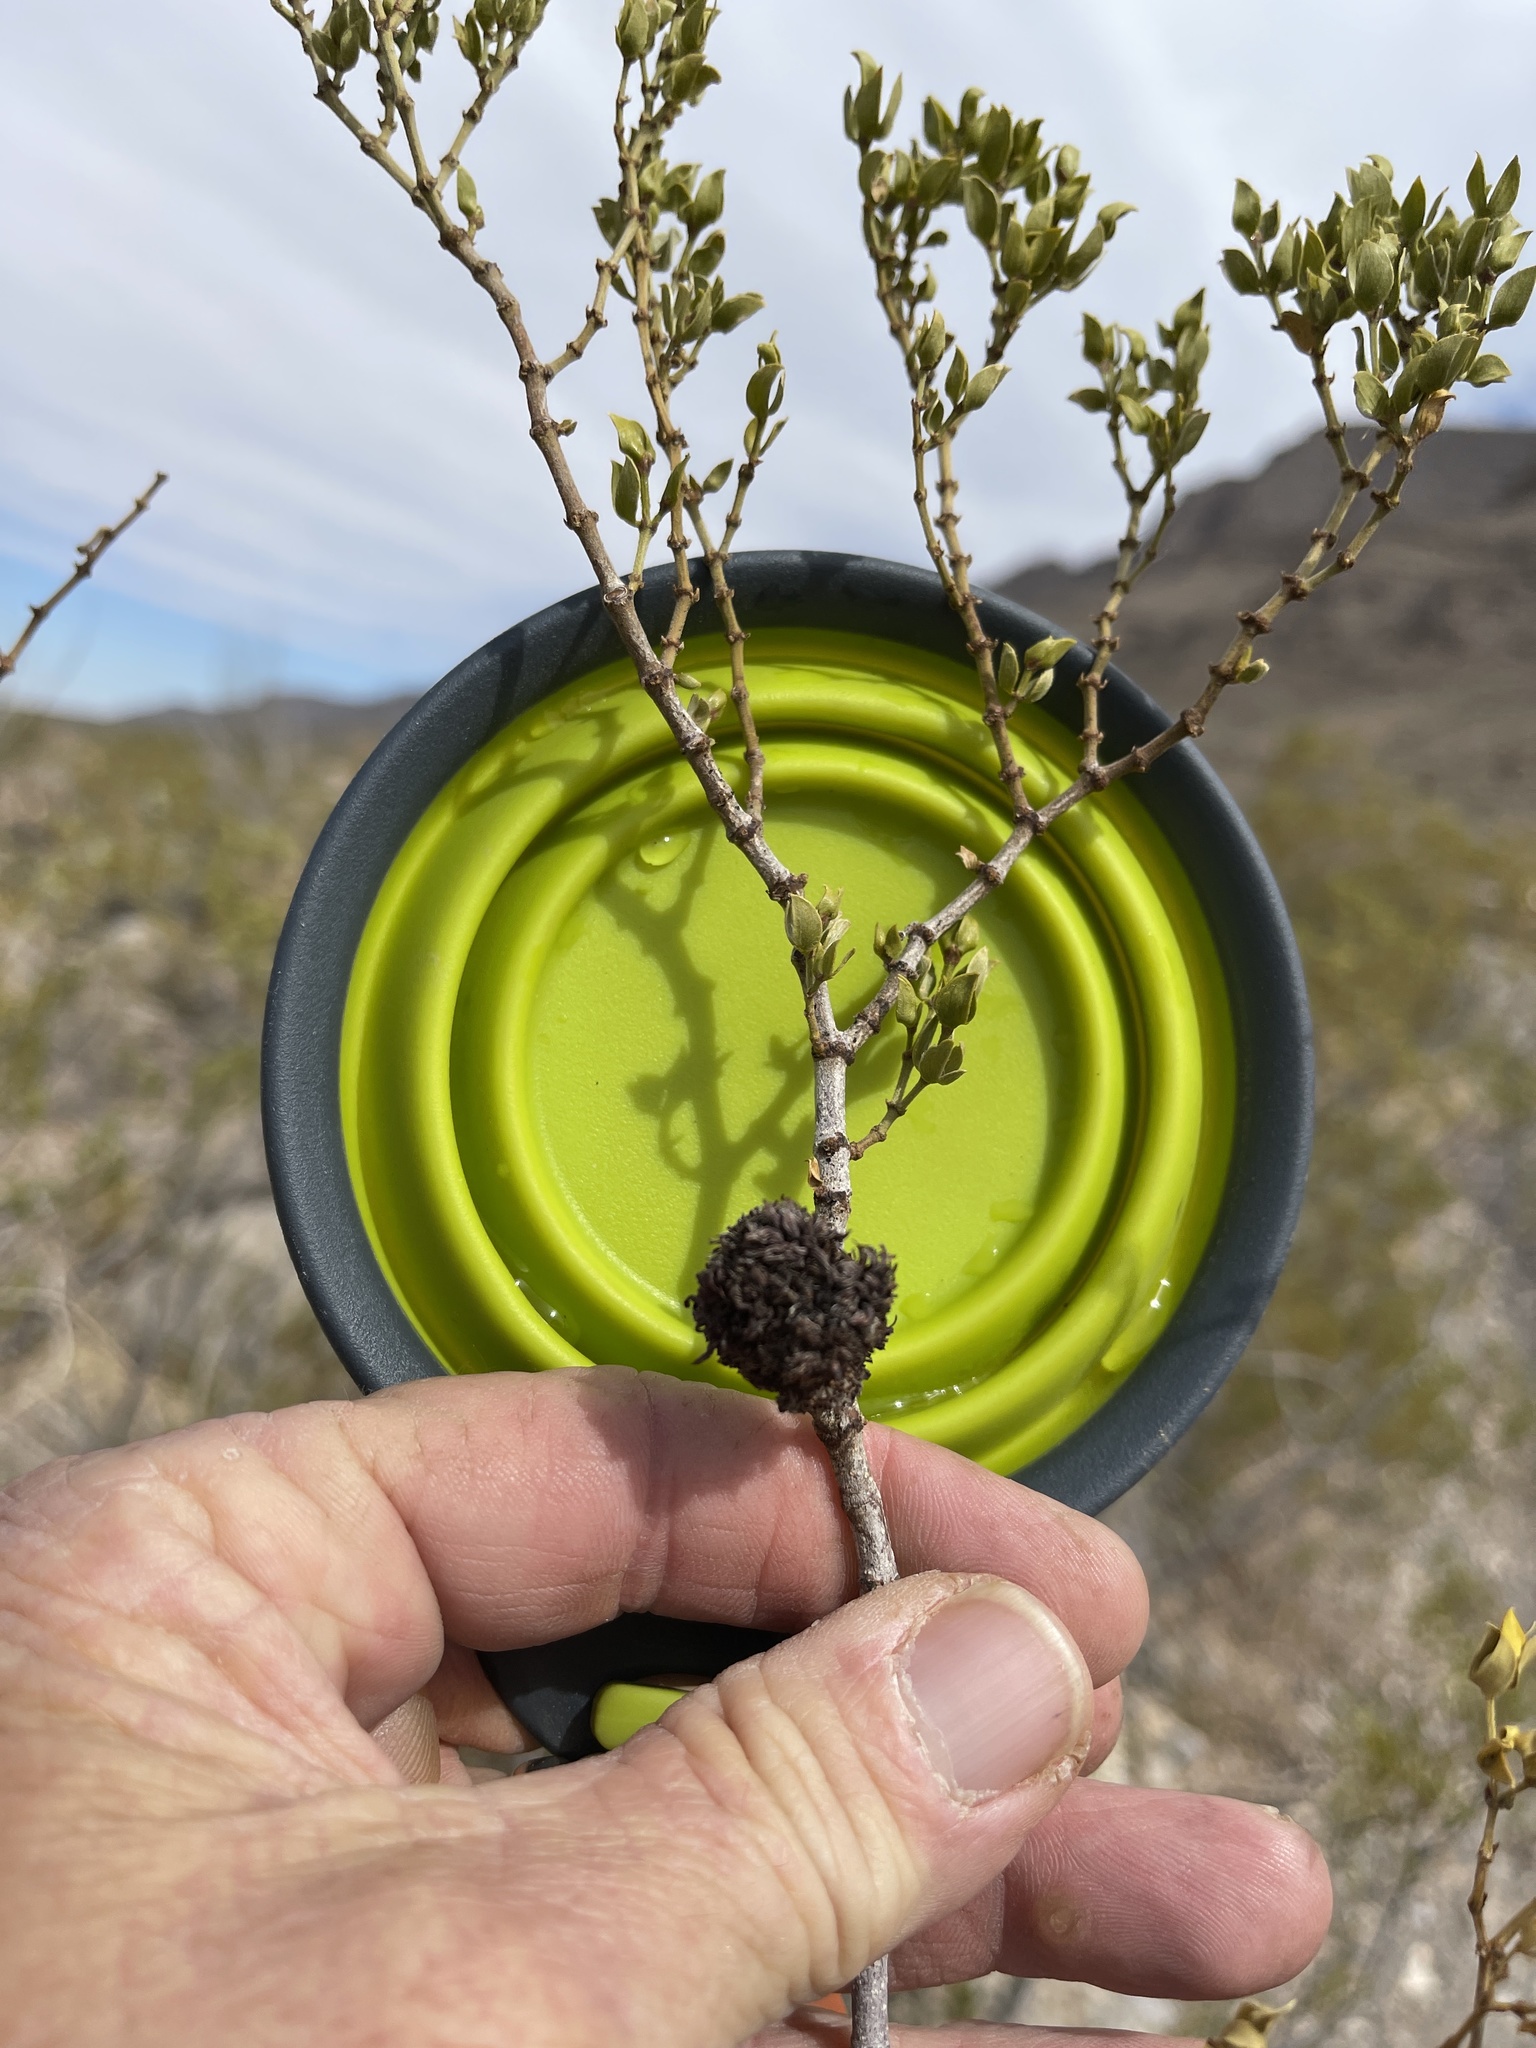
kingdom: Animalia
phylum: Arthropoda
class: Insecta
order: Diptera
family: Cecidomyiidae
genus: Asphondylia
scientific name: Asphondylia auripila
